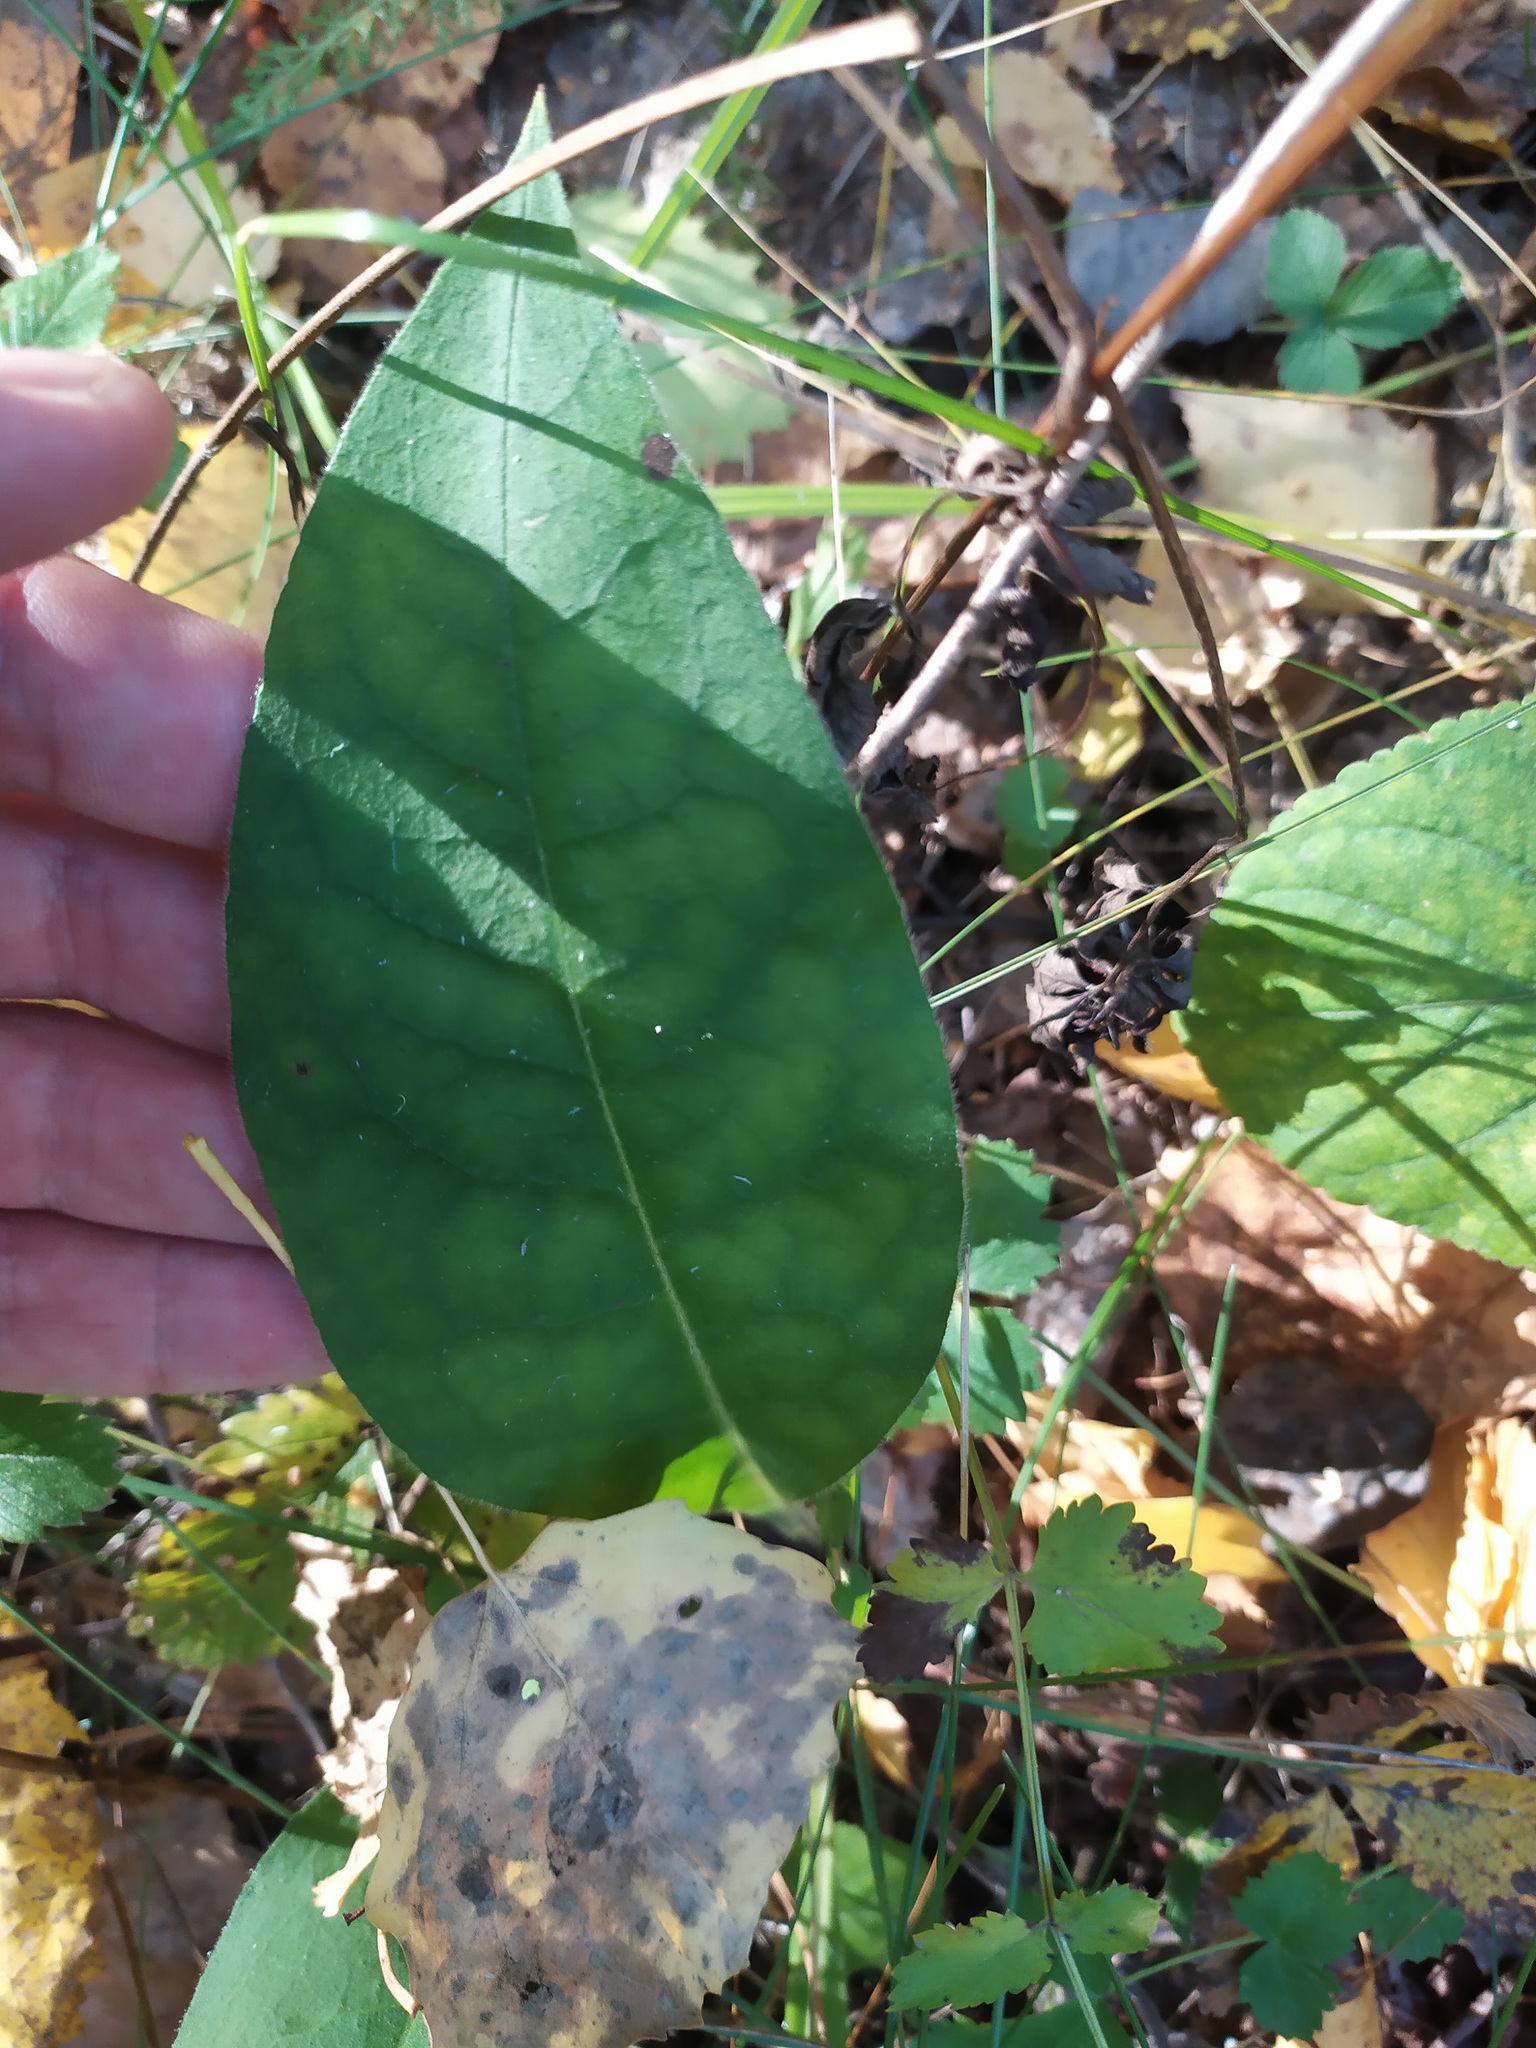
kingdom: Plantae
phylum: Tracheophyta
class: Magnoliopsida
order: Boraginales
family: Boraginaceae
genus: Pulmonaria
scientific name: Pulmonaria mollis
